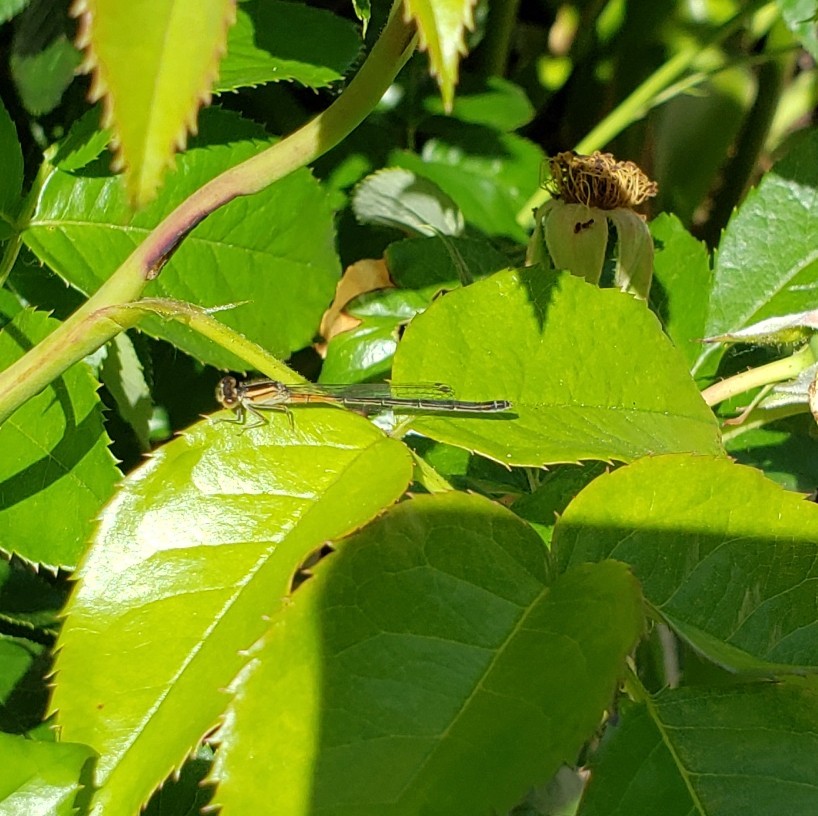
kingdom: Animalia
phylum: Arthropoda
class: Insecta
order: Odonata
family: Coenagrionidae
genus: Ischnura
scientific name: Ischnura verticalis
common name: Eastern forktail
